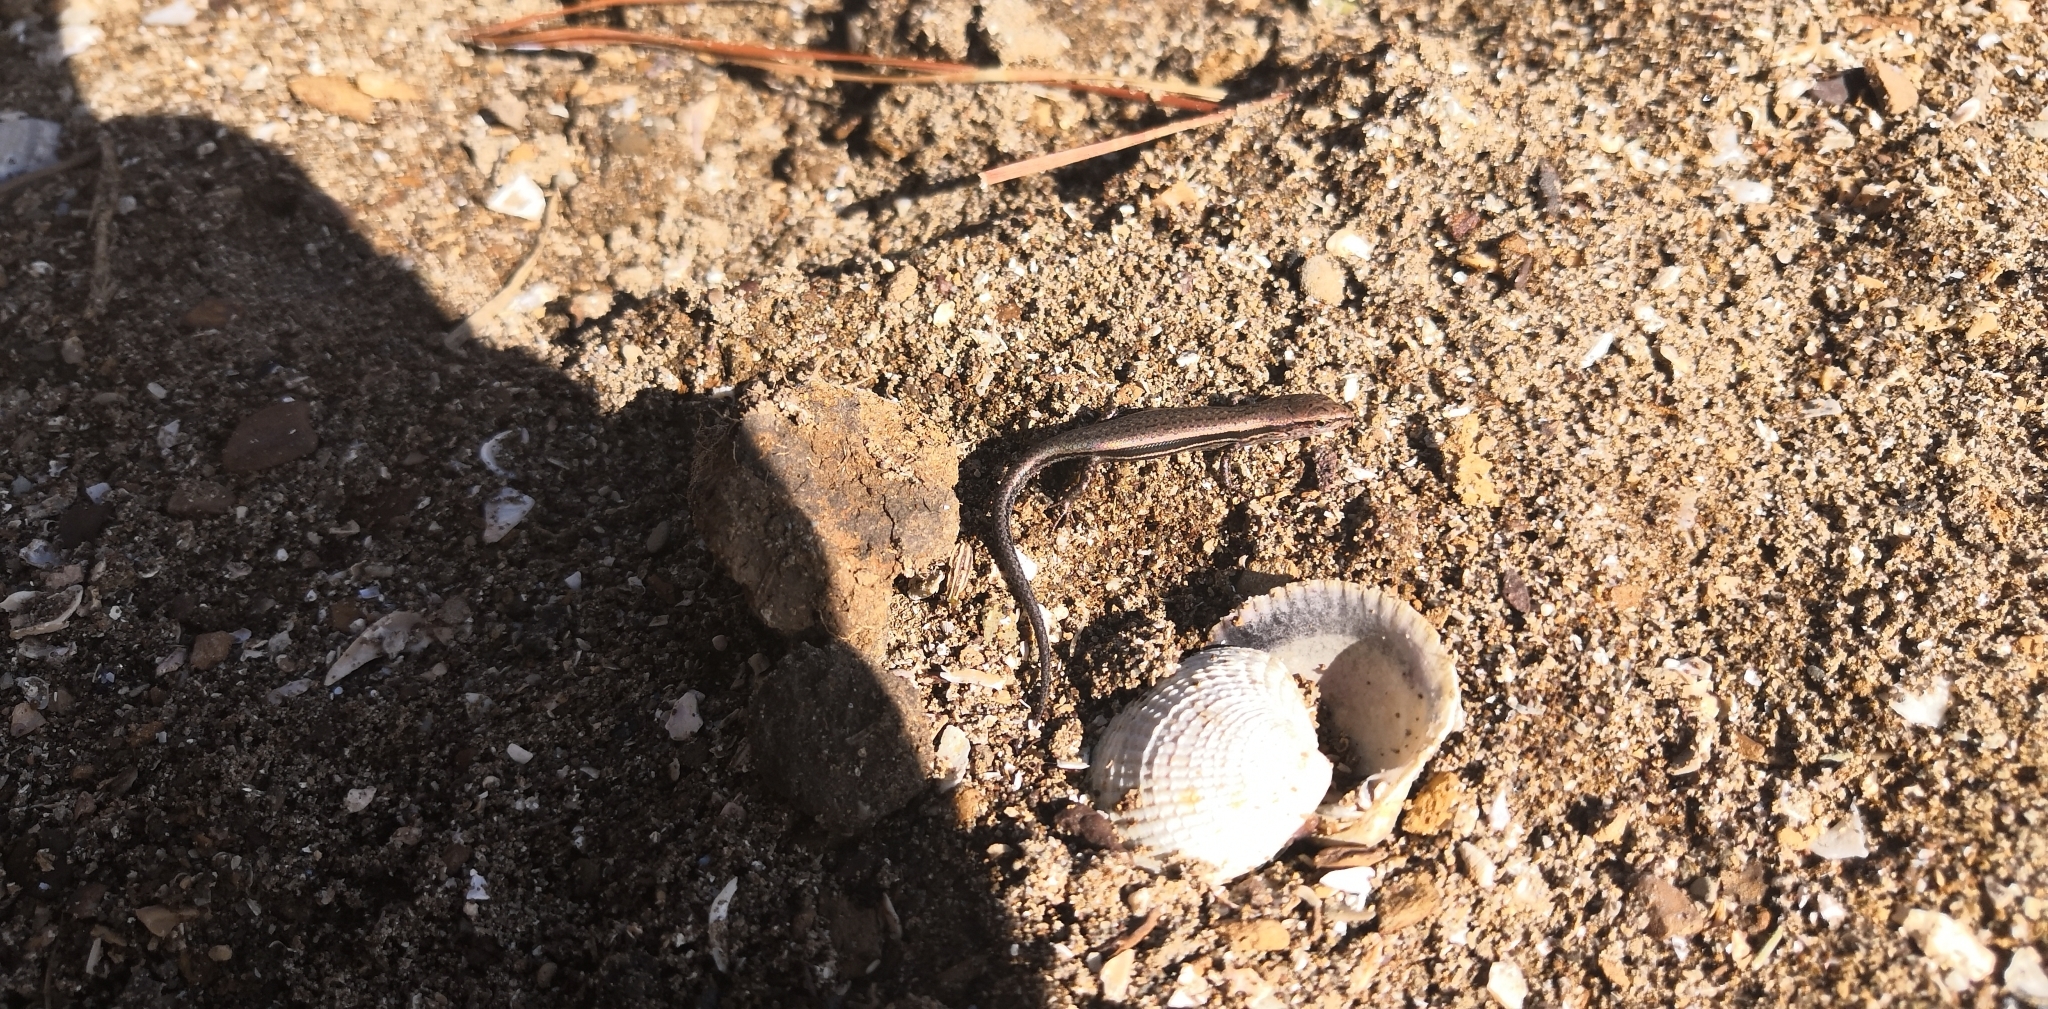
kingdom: Animalia
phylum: Chordata
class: Squamata
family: Scincidae
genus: Lampropholis
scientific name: Lampropholis delicata
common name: Plague skink
